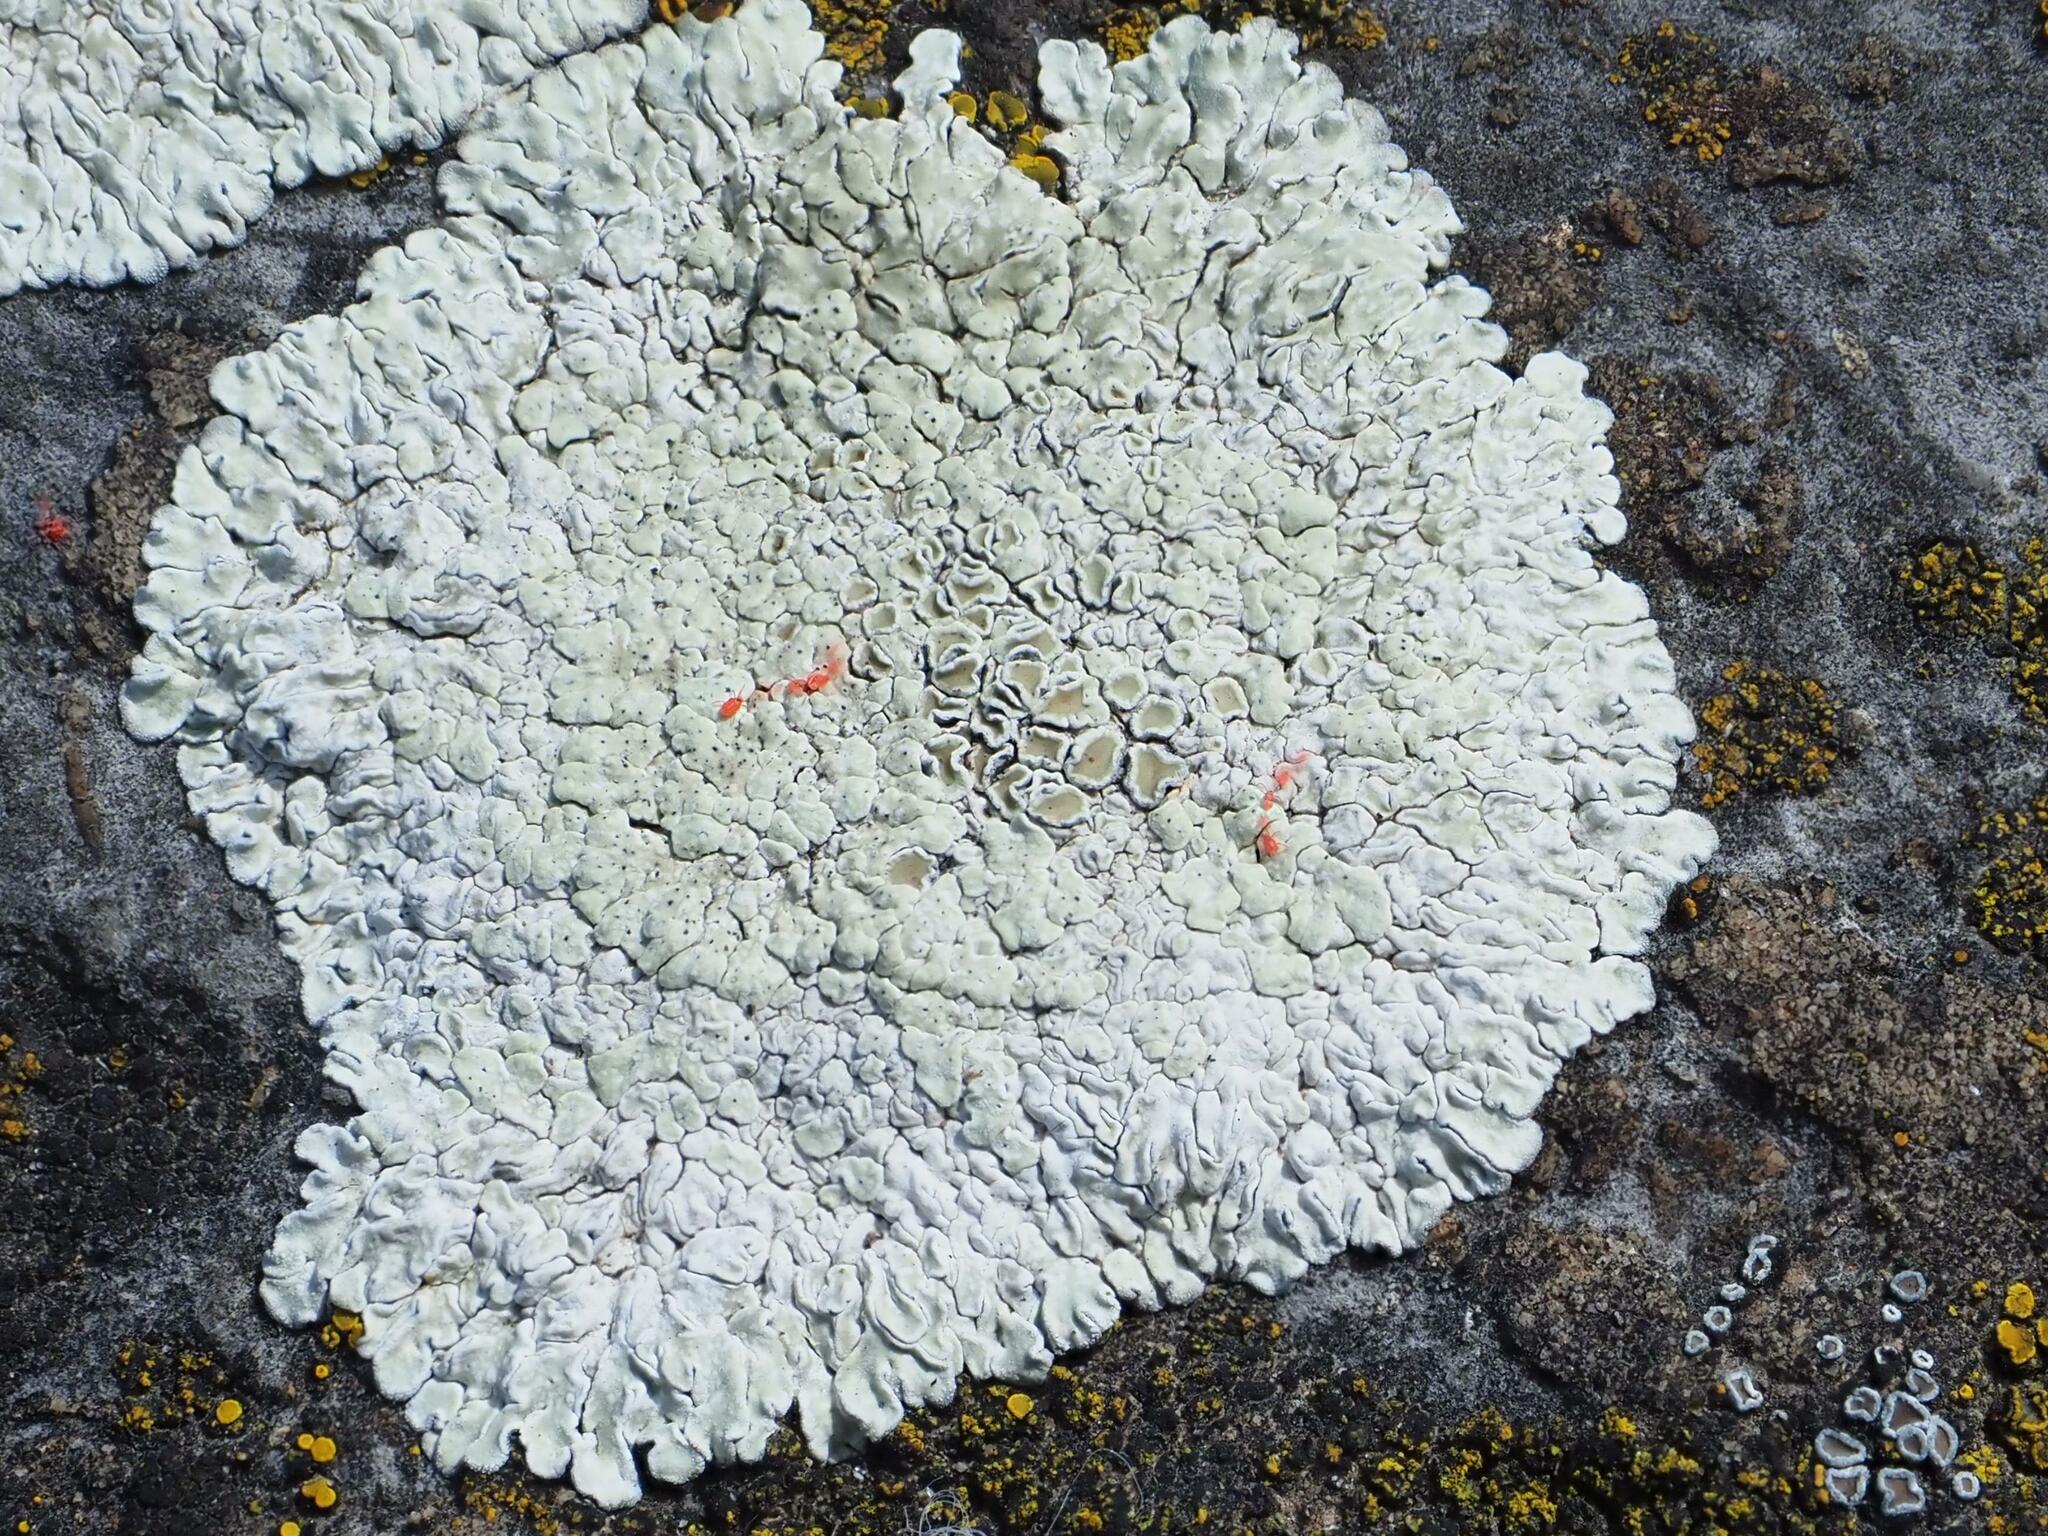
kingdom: Fungi
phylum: Ascomycota
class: Lecanoromycetes
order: Lecanorales
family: Lecanoraceae
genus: Protoparmeliopsis
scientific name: Protoparmeliopsis muralis
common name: Stonewall rim lichen
